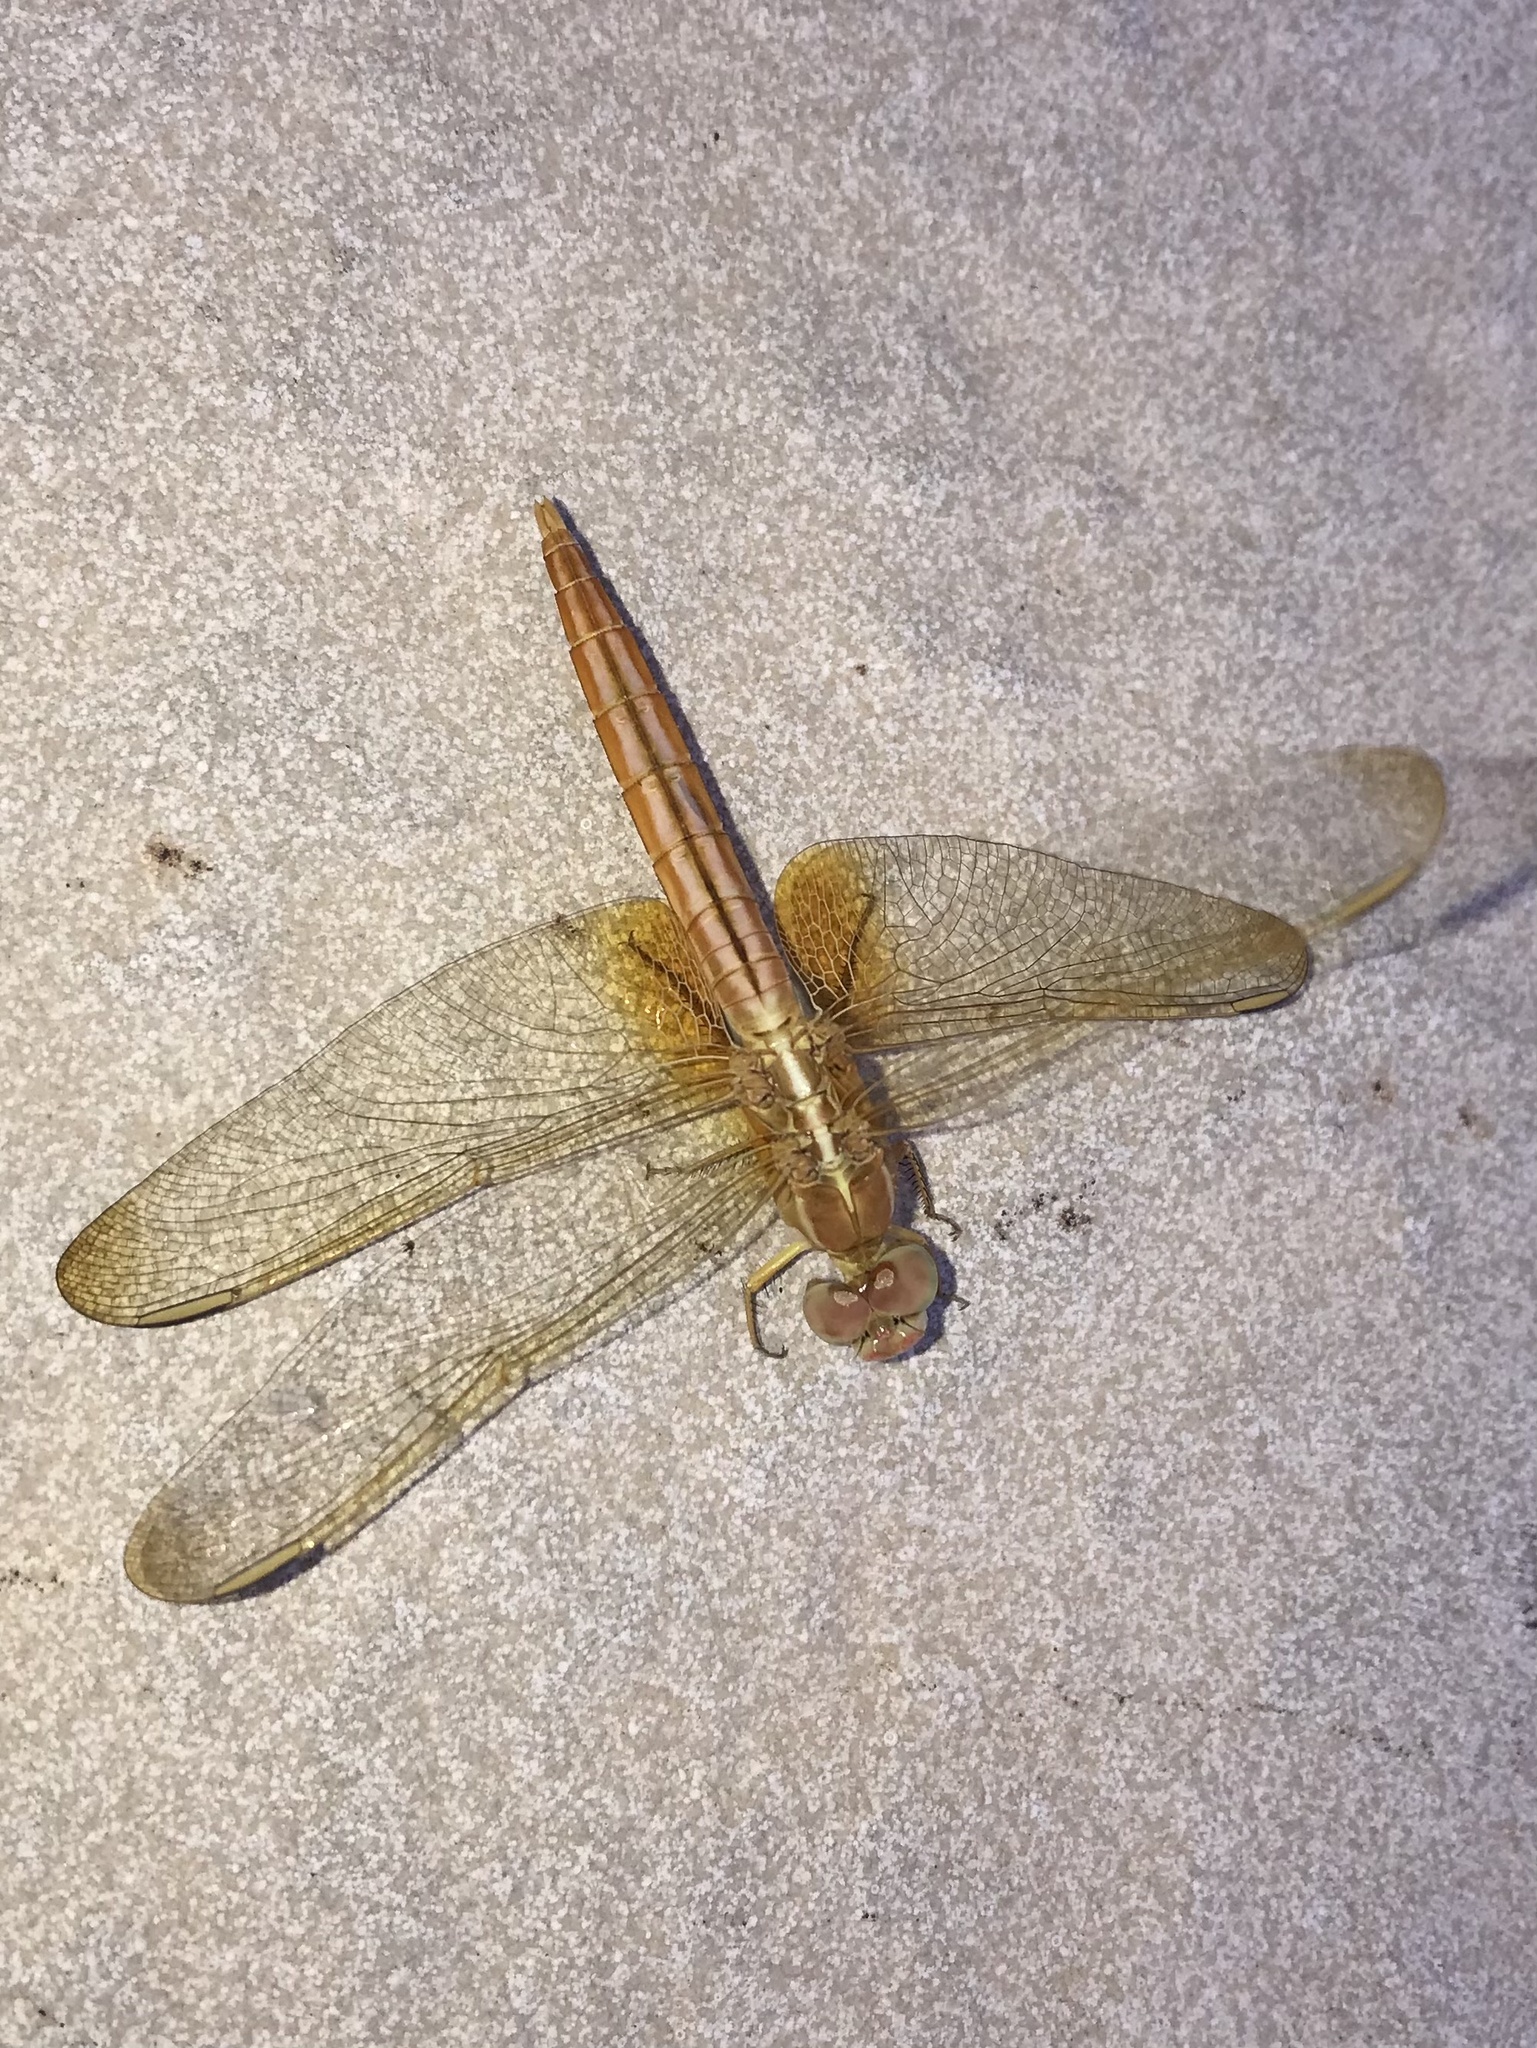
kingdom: Animalia
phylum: Arthropoda
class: Insecta
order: Odonata
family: Libellulidae
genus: Crocothemis
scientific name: Crocothemis servilia
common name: Scarlet skimmer
